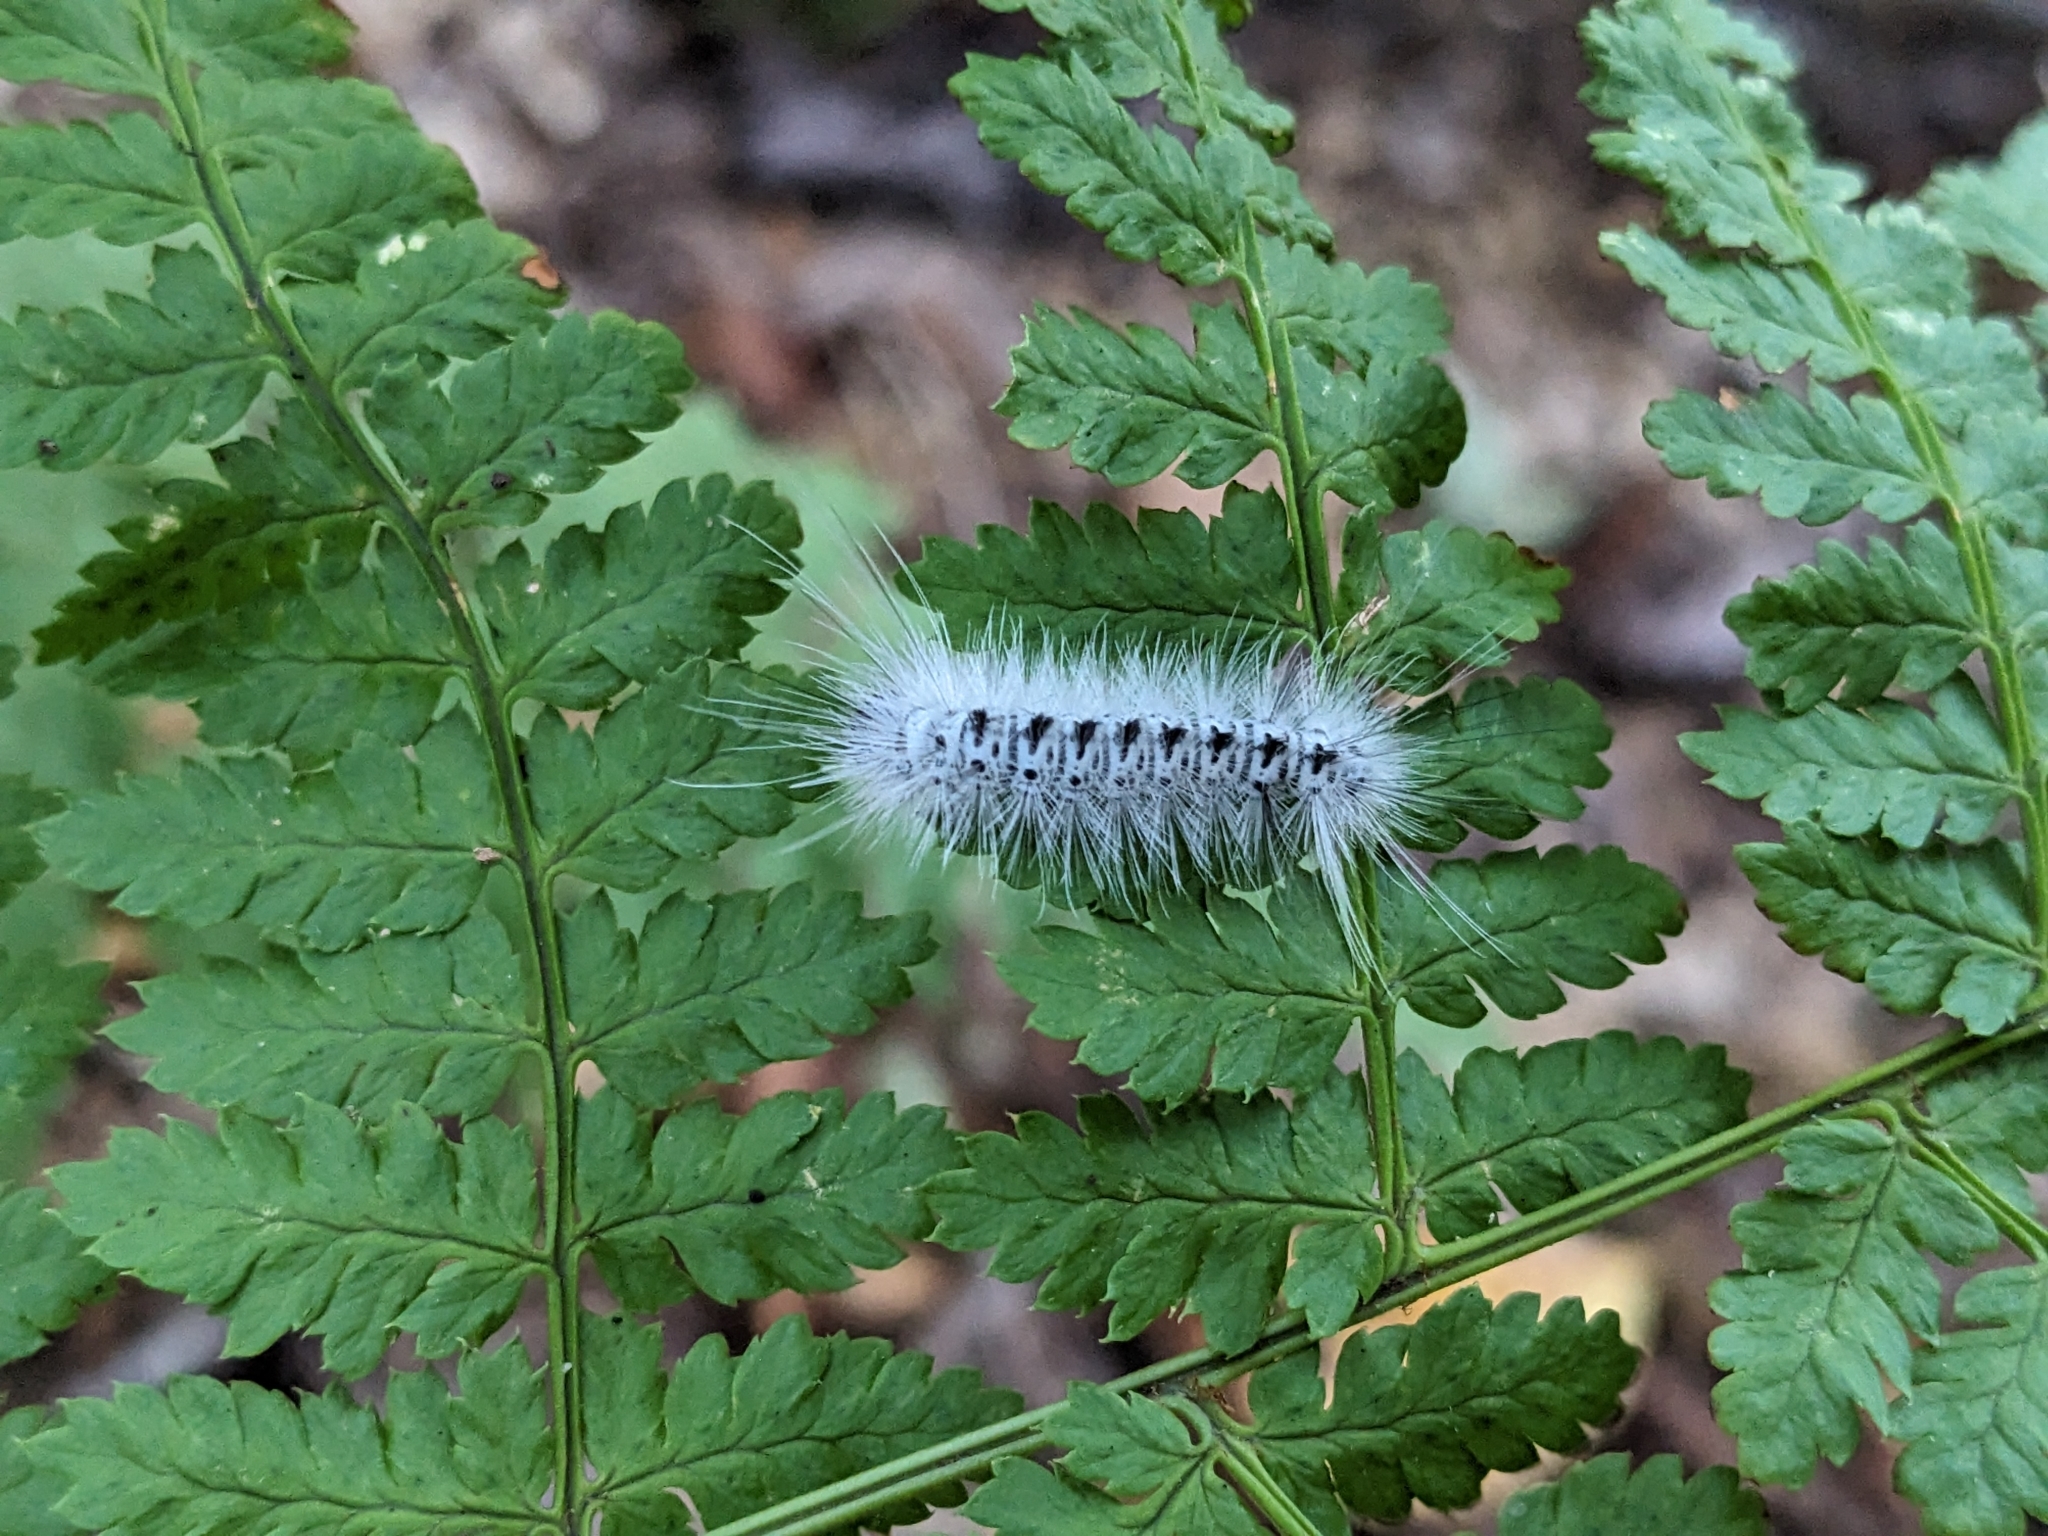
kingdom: Animalia
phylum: Arthropoda
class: Insecta
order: Lepidoptera
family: Erebidae
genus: Lophocampa
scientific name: Lophocampa caryae
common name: Hickory tussock moth
